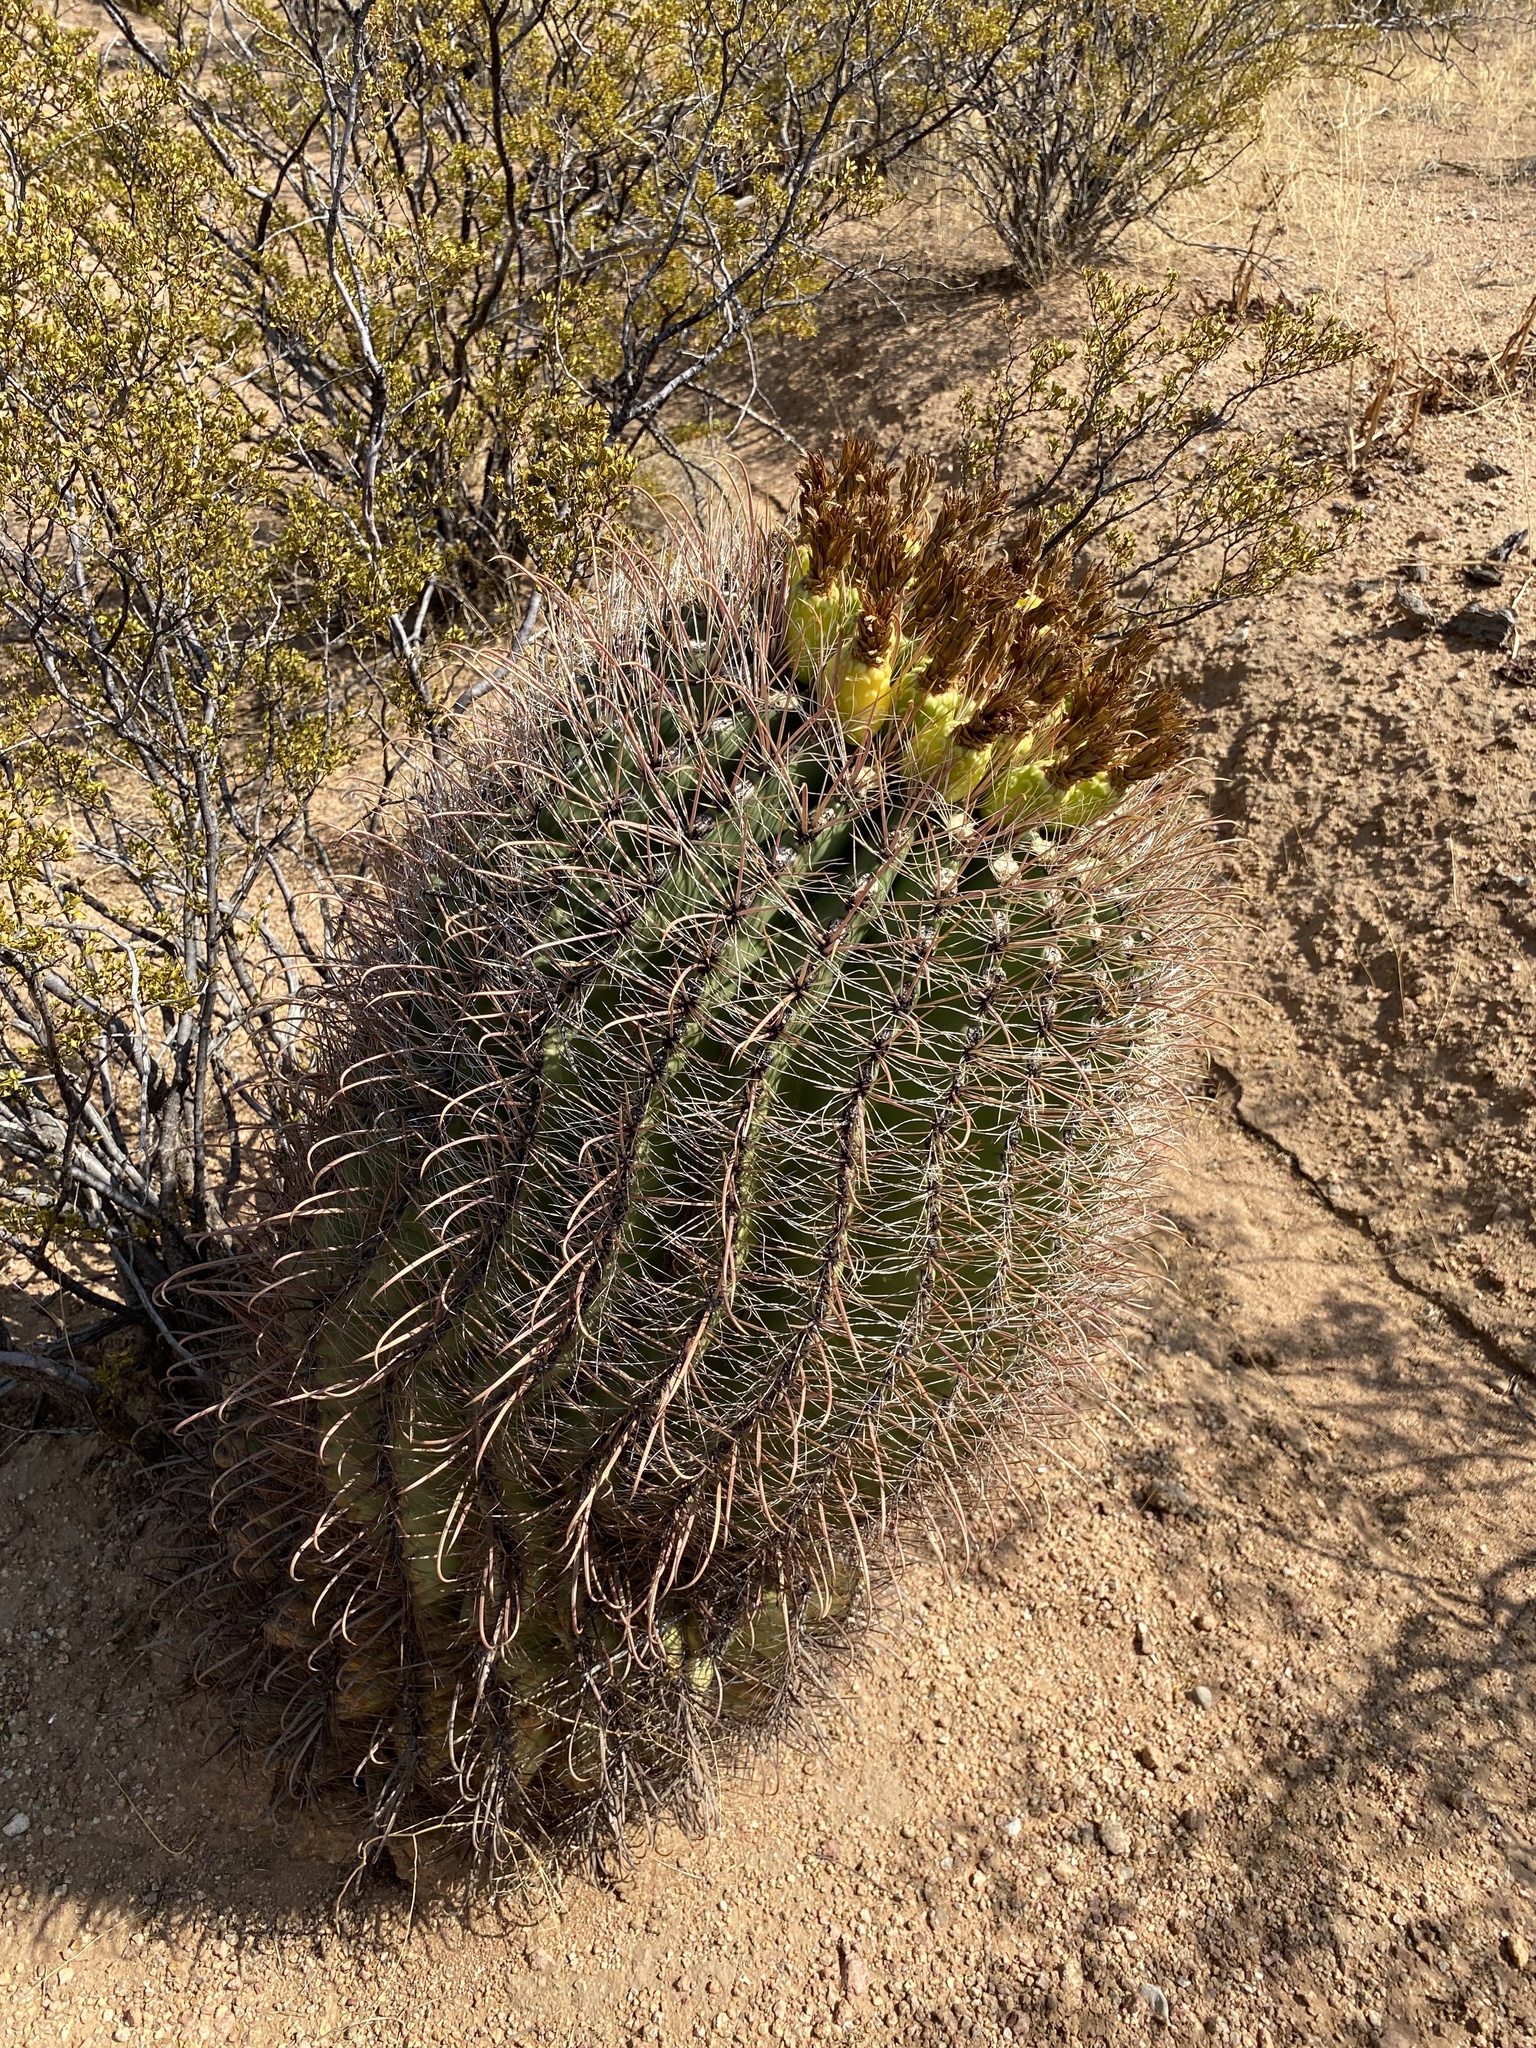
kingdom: Plantae
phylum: Tracheophyta
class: Magnoliopsida
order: Caryophyllales
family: Cactaceae
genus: Ferocactus
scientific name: Ferocactus wislizeni
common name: Candy barrel cactus
